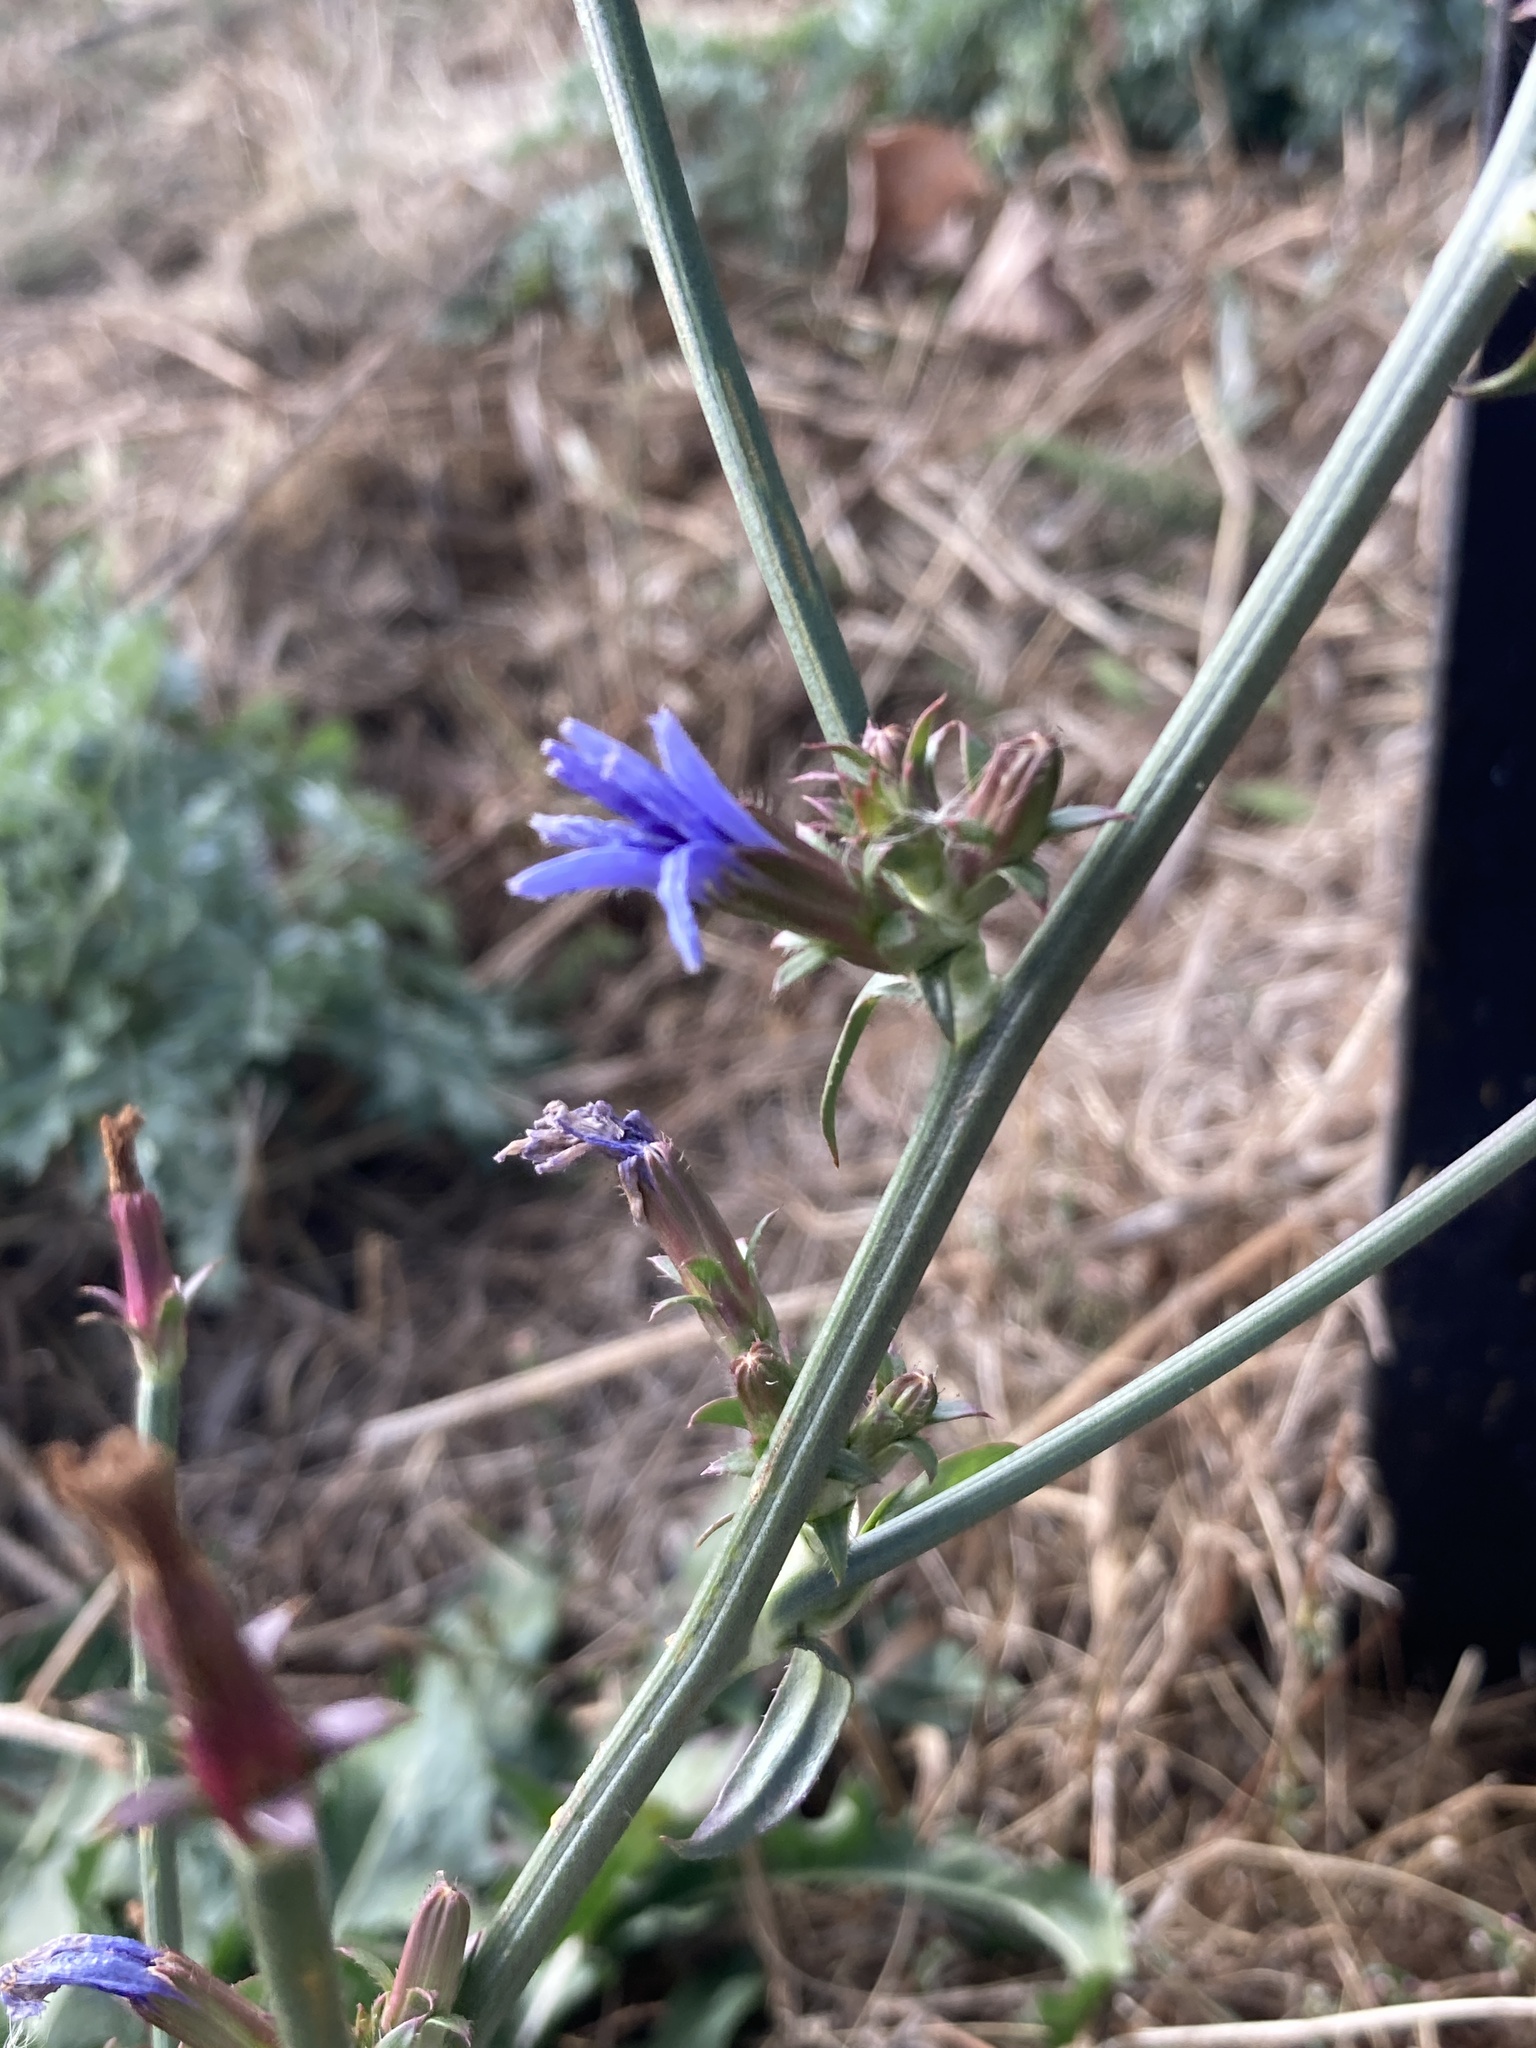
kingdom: Plantae
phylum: Tracheophyta
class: Magnoliopsida
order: Asterales
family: Asteraceae
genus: Cichorium
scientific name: Cichorium intybus
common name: Chicory
